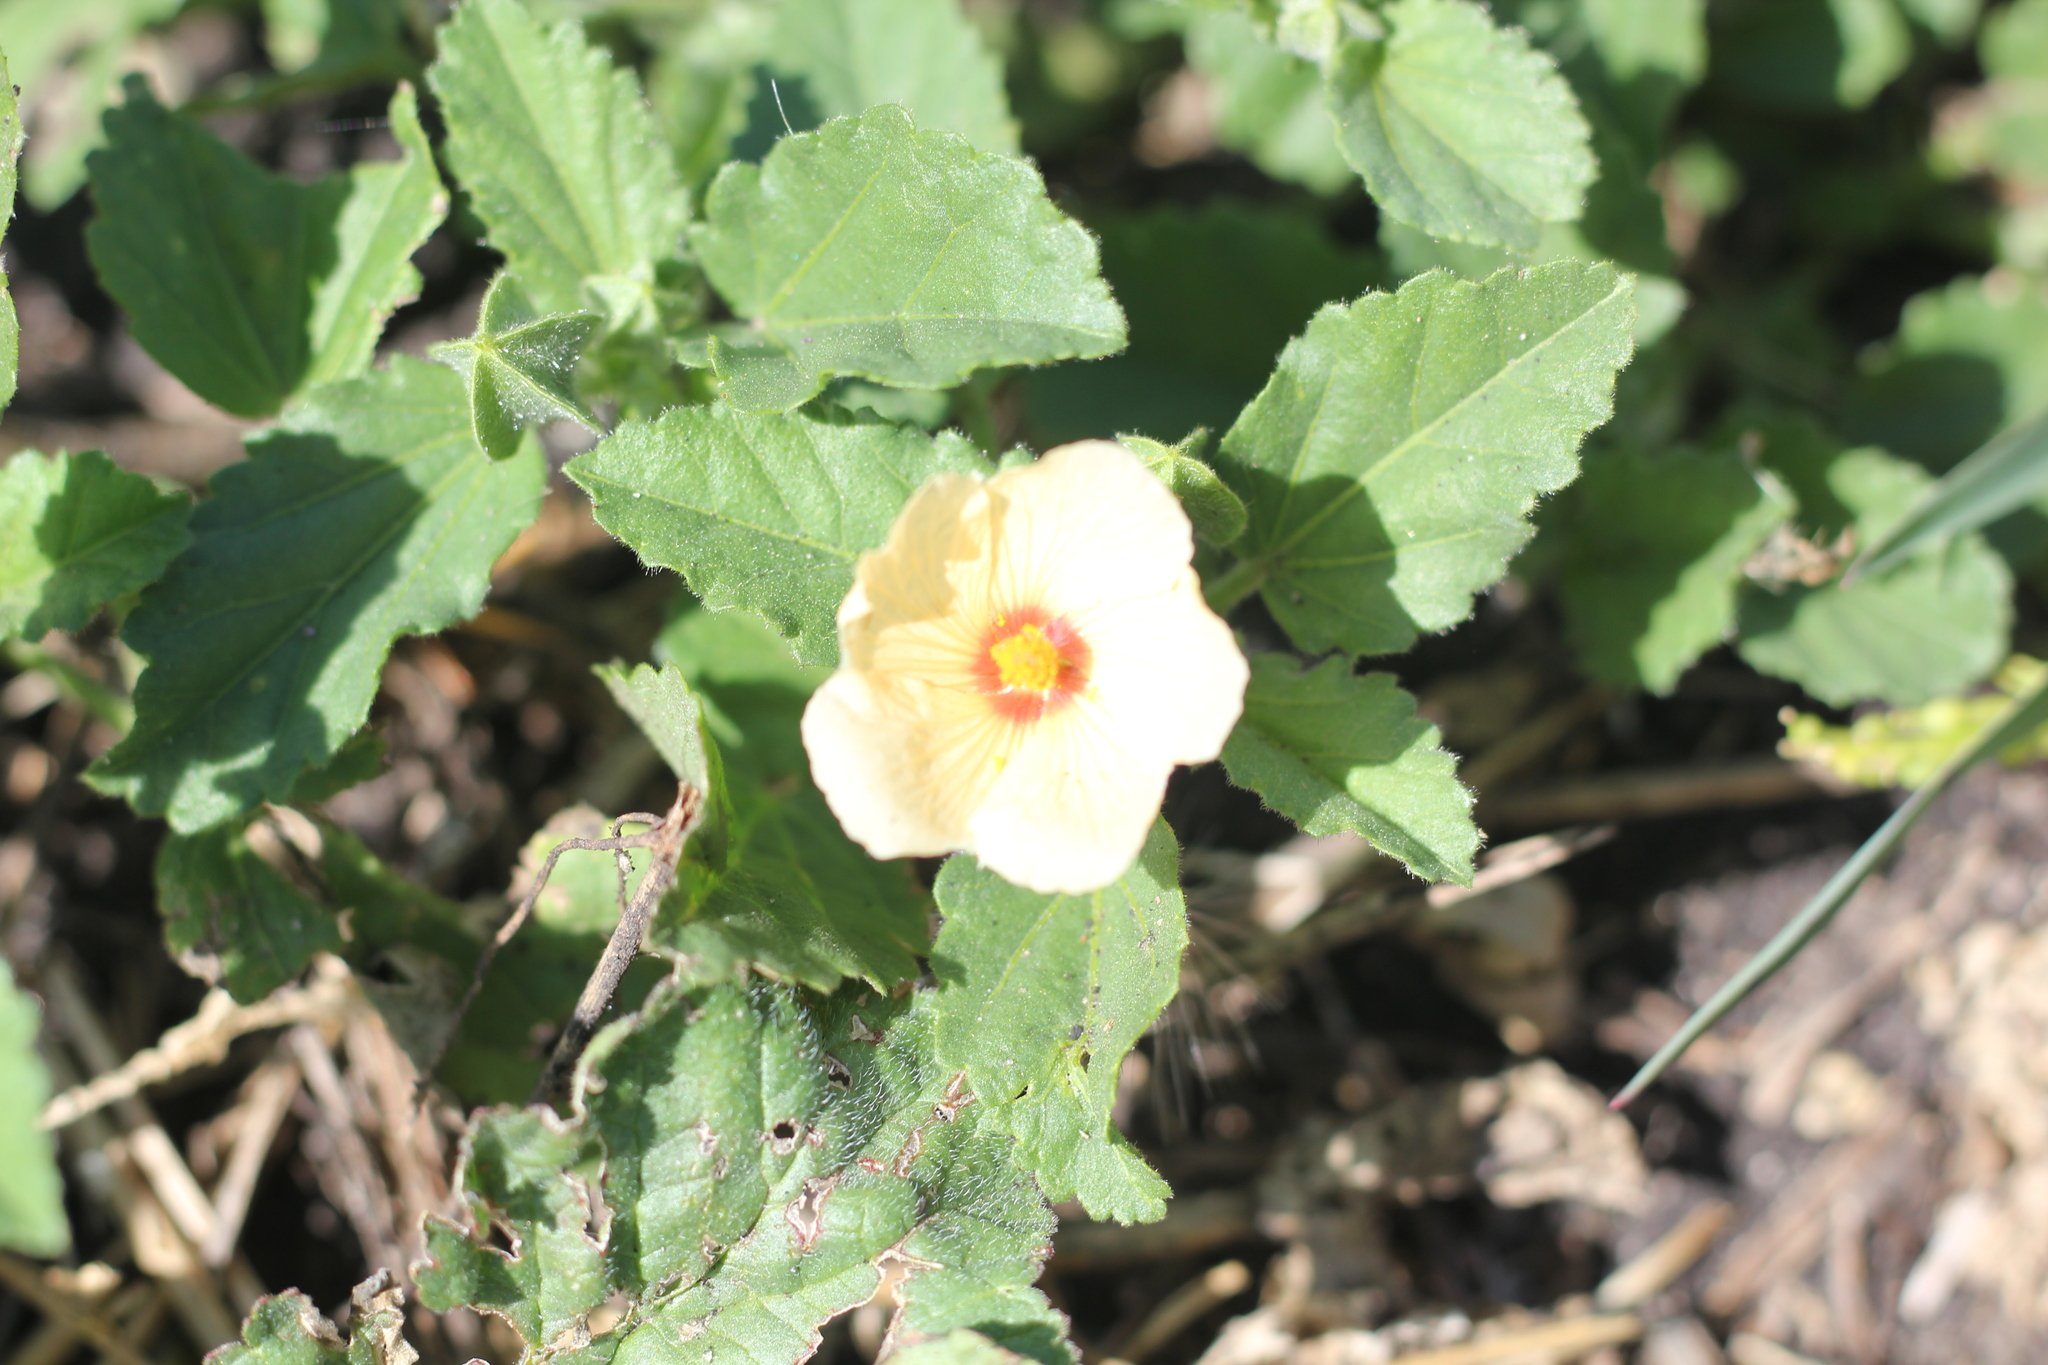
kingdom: Plantae
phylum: Tracheophyta
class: Magnoliopsida
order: Malvales
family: Malvaceae
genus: Rhynchosida
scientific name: Rhynchosida physocalyx
